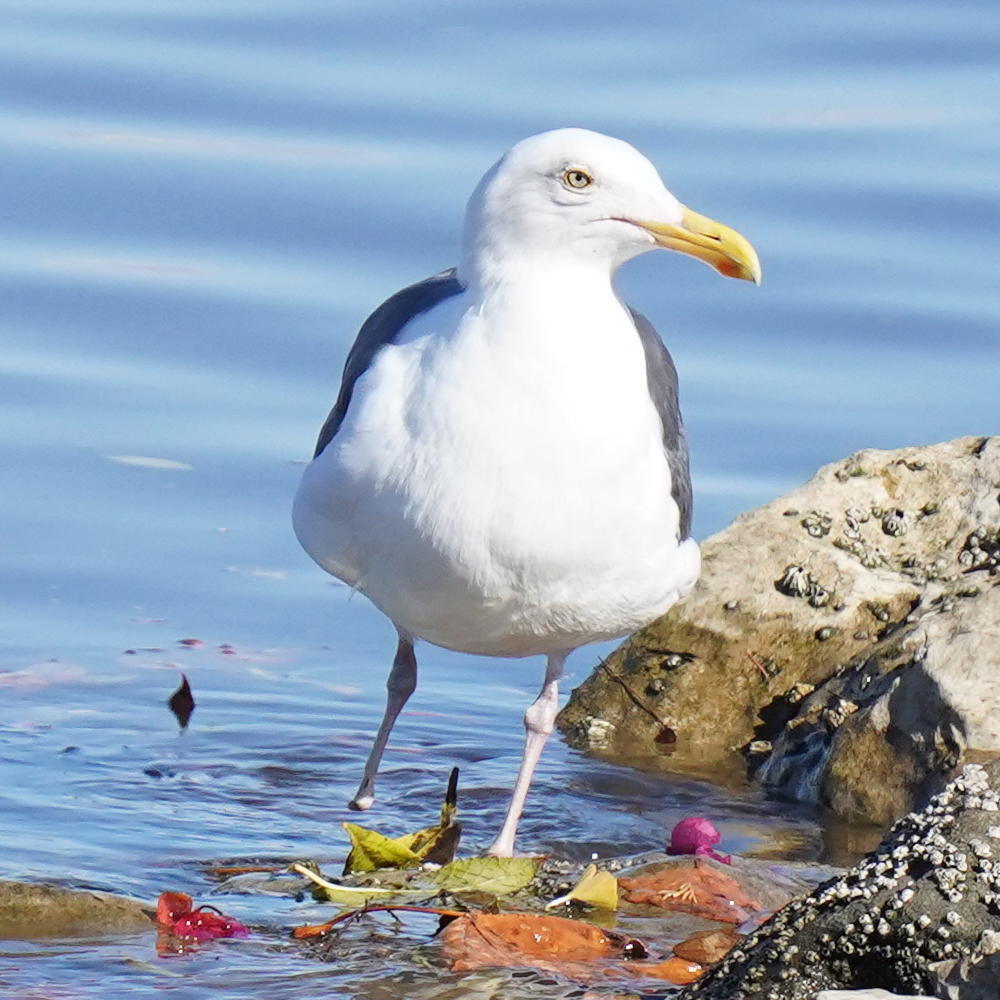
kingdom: Animalia
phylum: Chordata
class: Aves
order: Charadriiformes
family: Laridae
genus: Larus
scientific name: Larus occidentalis
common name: Western gull
